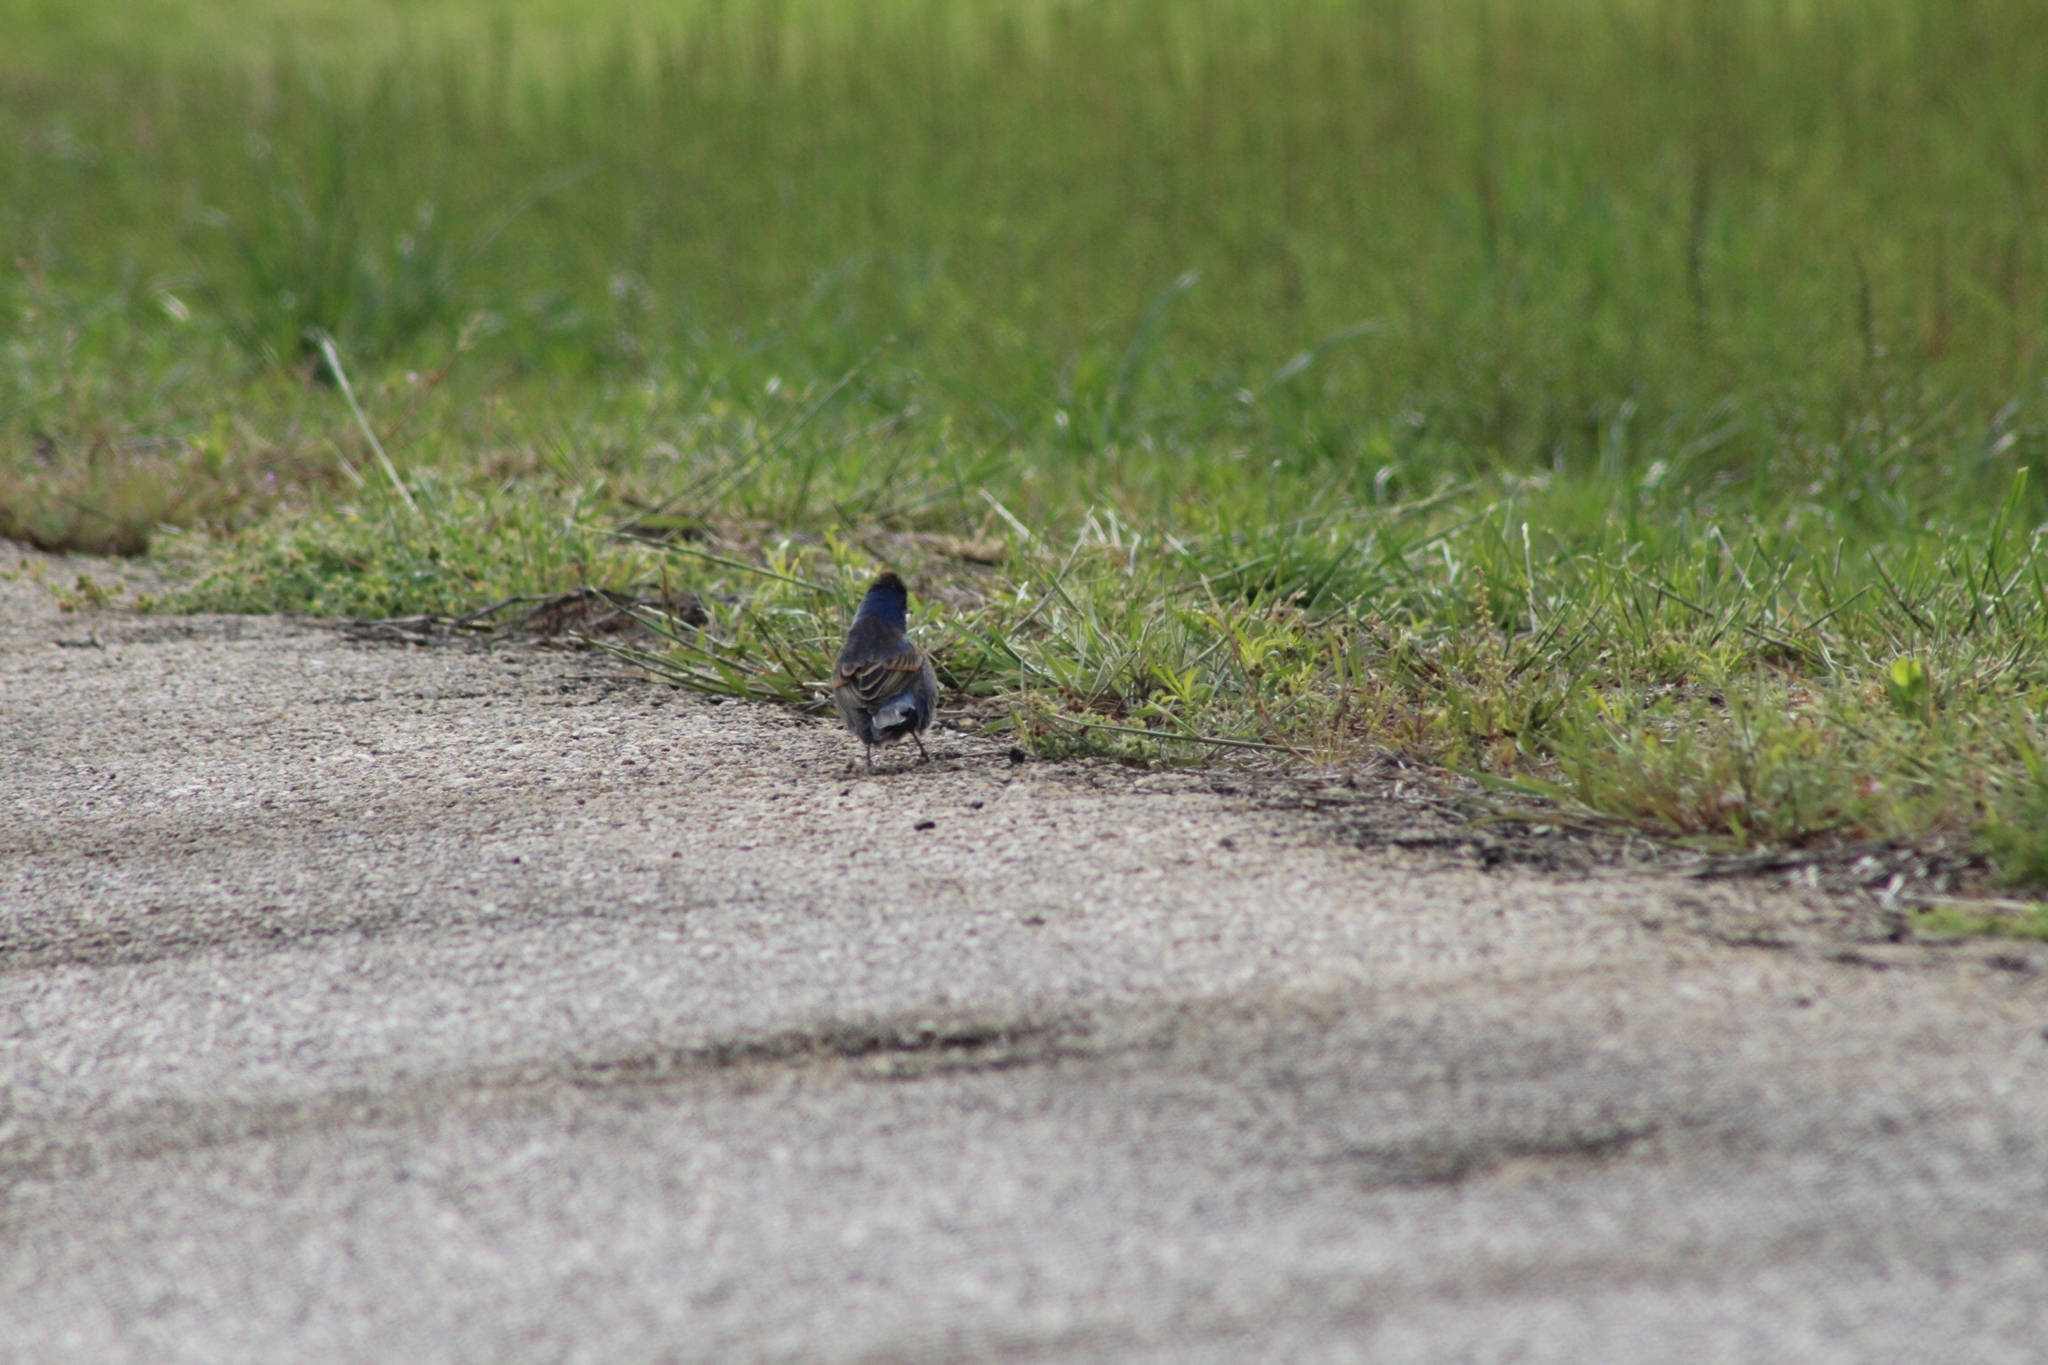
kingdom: Animalia
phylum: Chordata
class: Aves
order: Passeriformes
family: Cardinalidae
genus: Passerina
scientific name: Passerina caerulea
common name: Blue grosbeak
